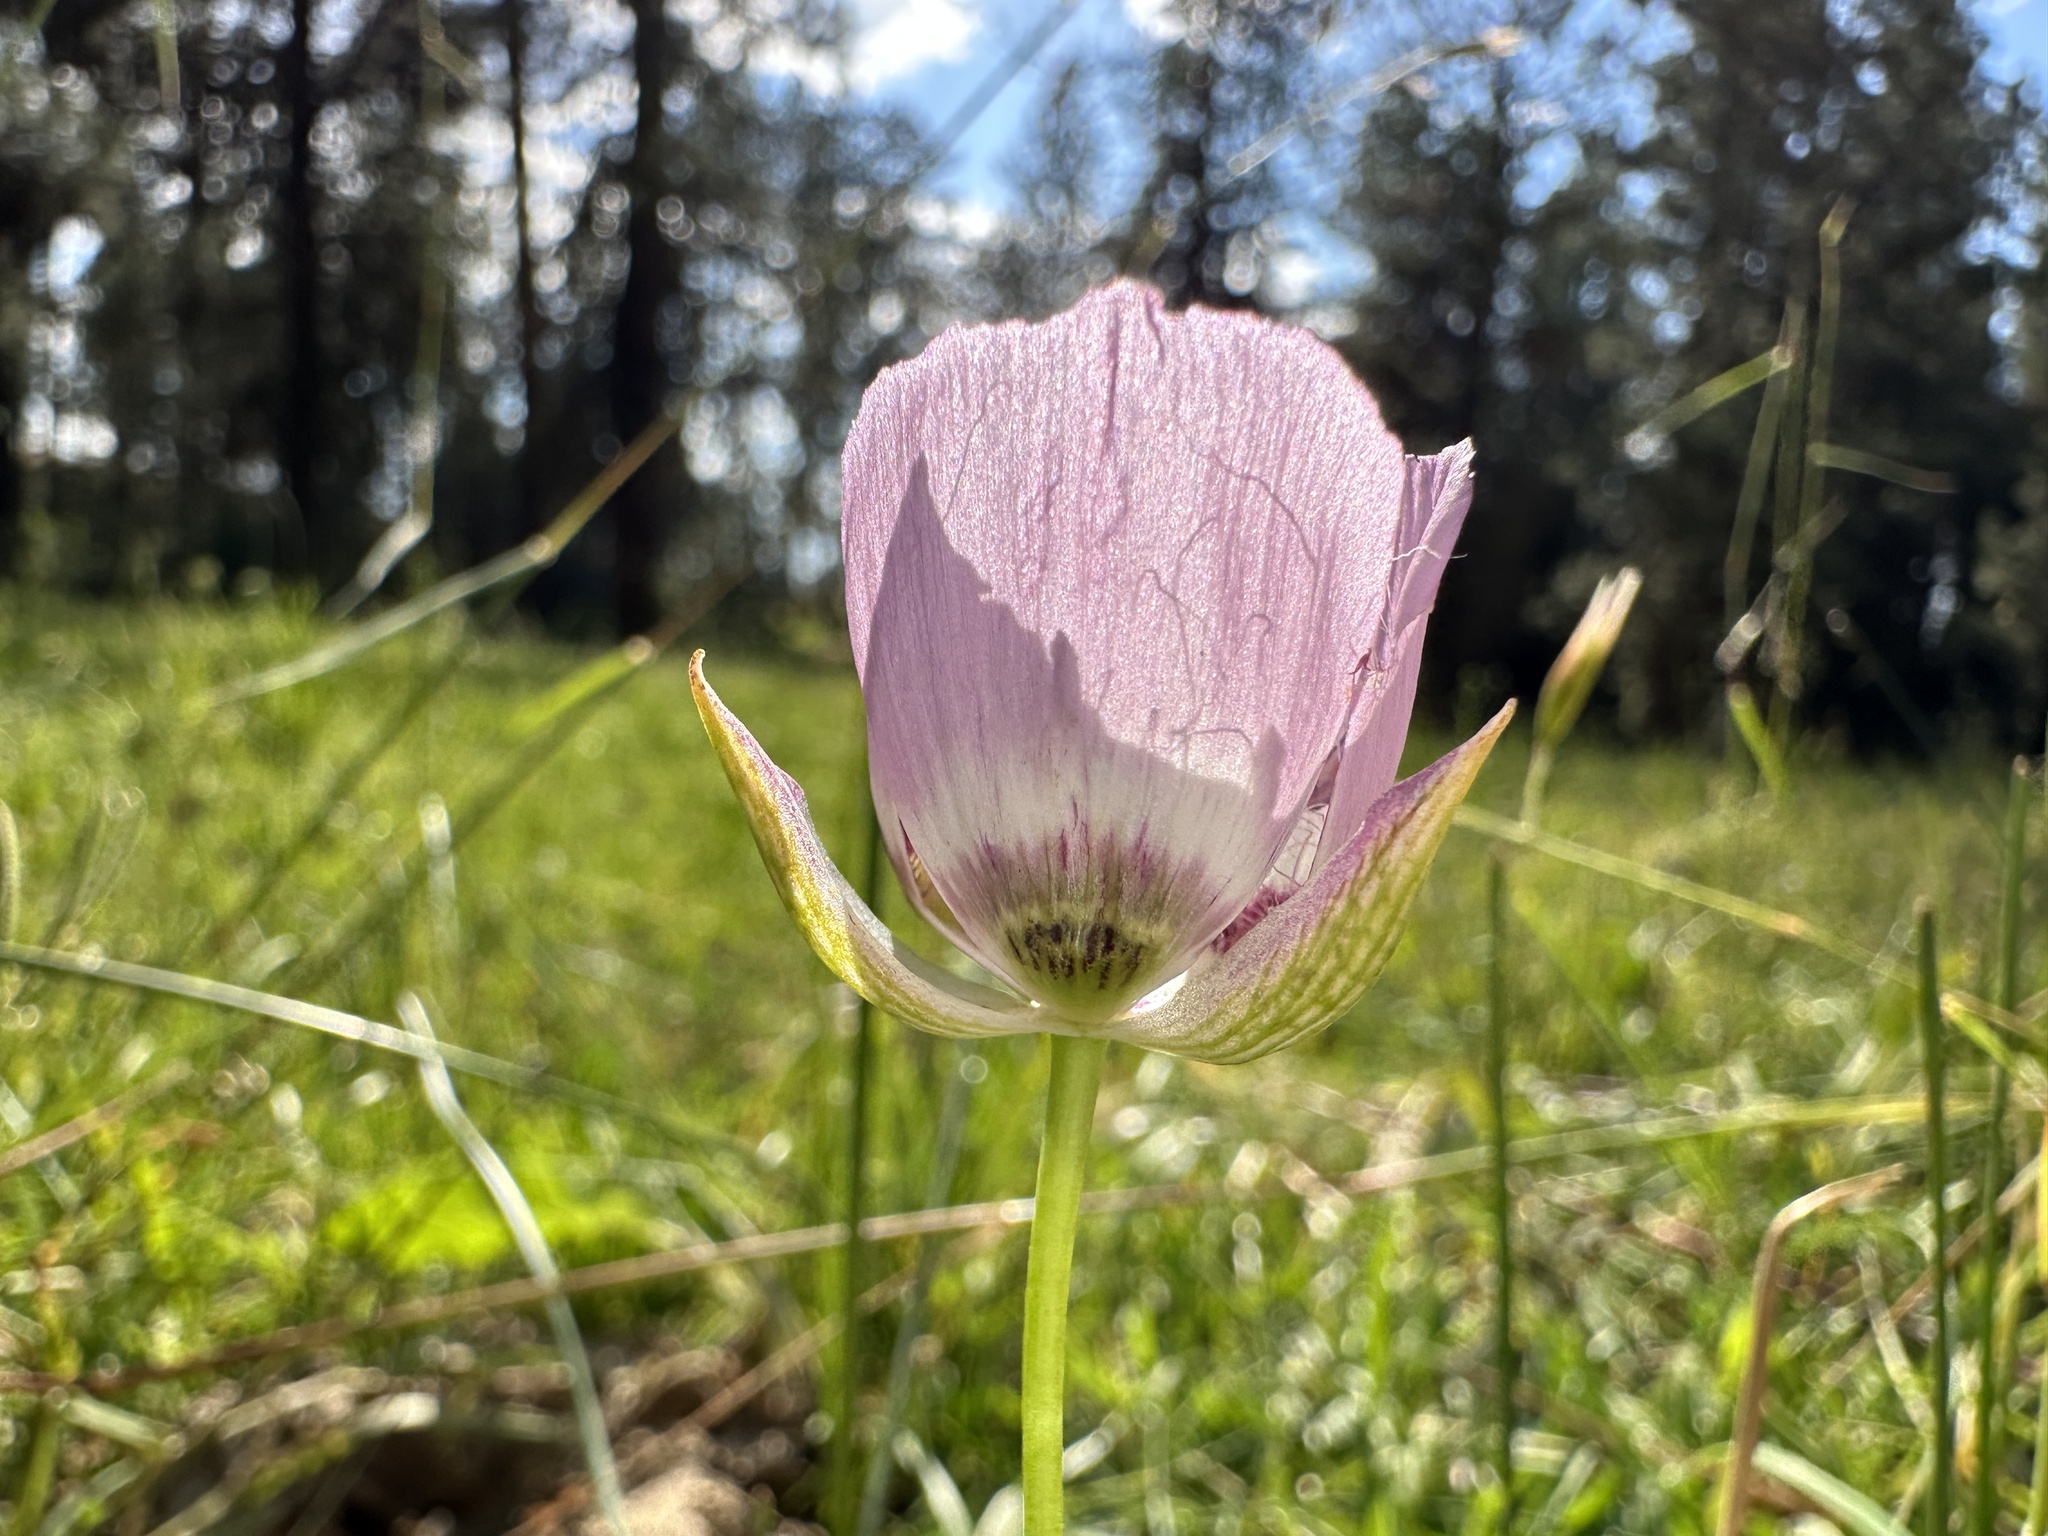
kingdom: Plantae
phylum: Tracheophyta
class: Liliopsida
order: Liliales
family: Liliaceae
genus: Calochortus
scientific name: Calochortus longibarbatus
